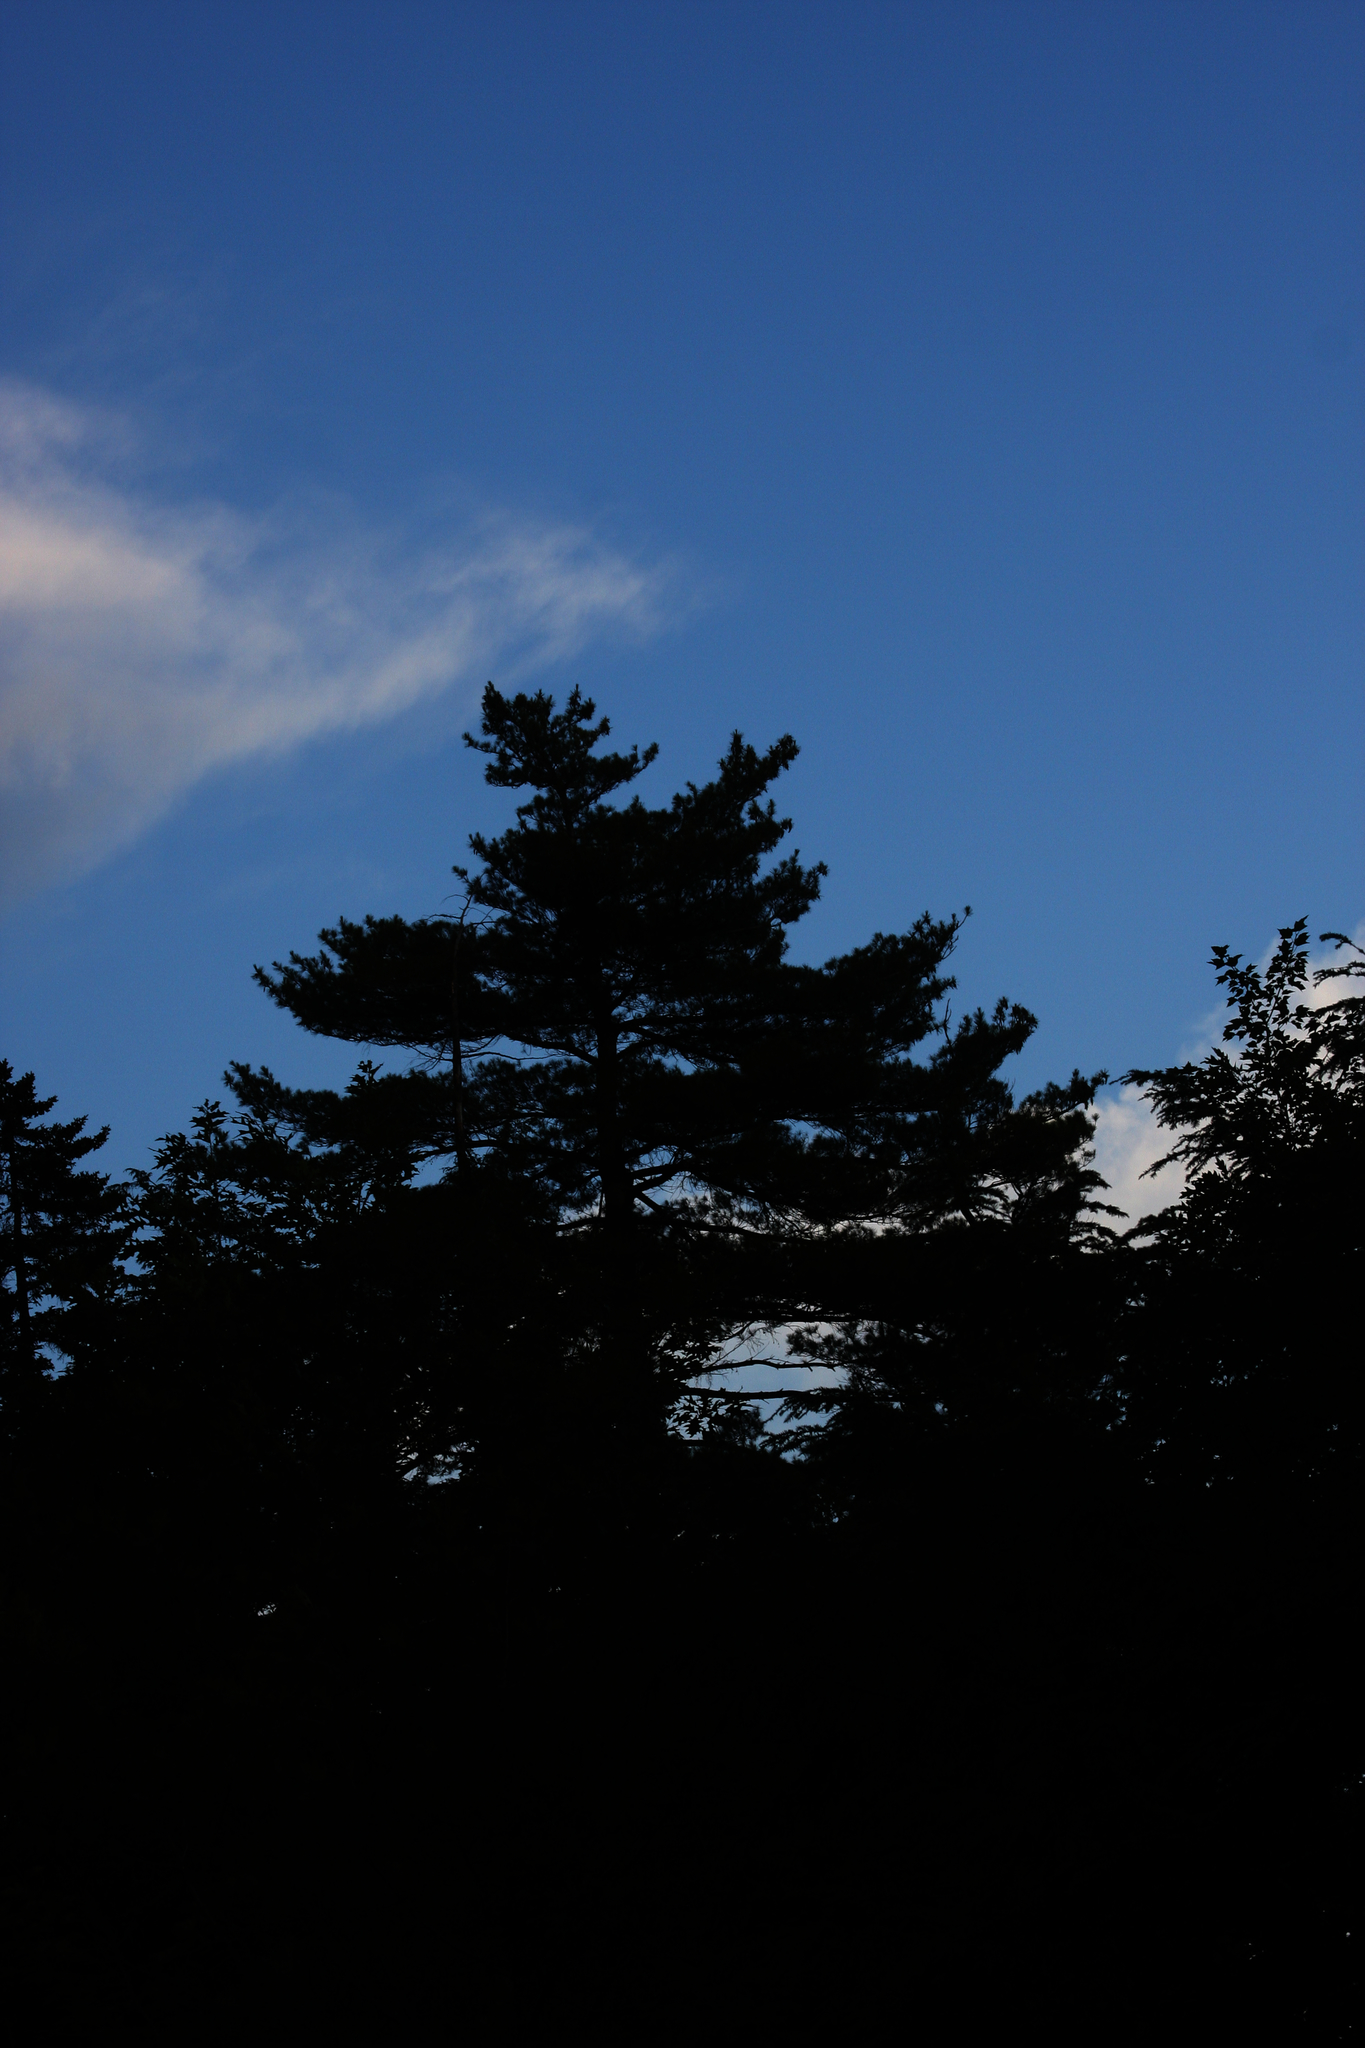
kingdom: Plantae
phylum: Tracheophyta
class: Pinopsida
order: Pinales
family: Pinaceae
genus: Pinus
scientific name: Pinus strobus
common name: Weymouth pine
